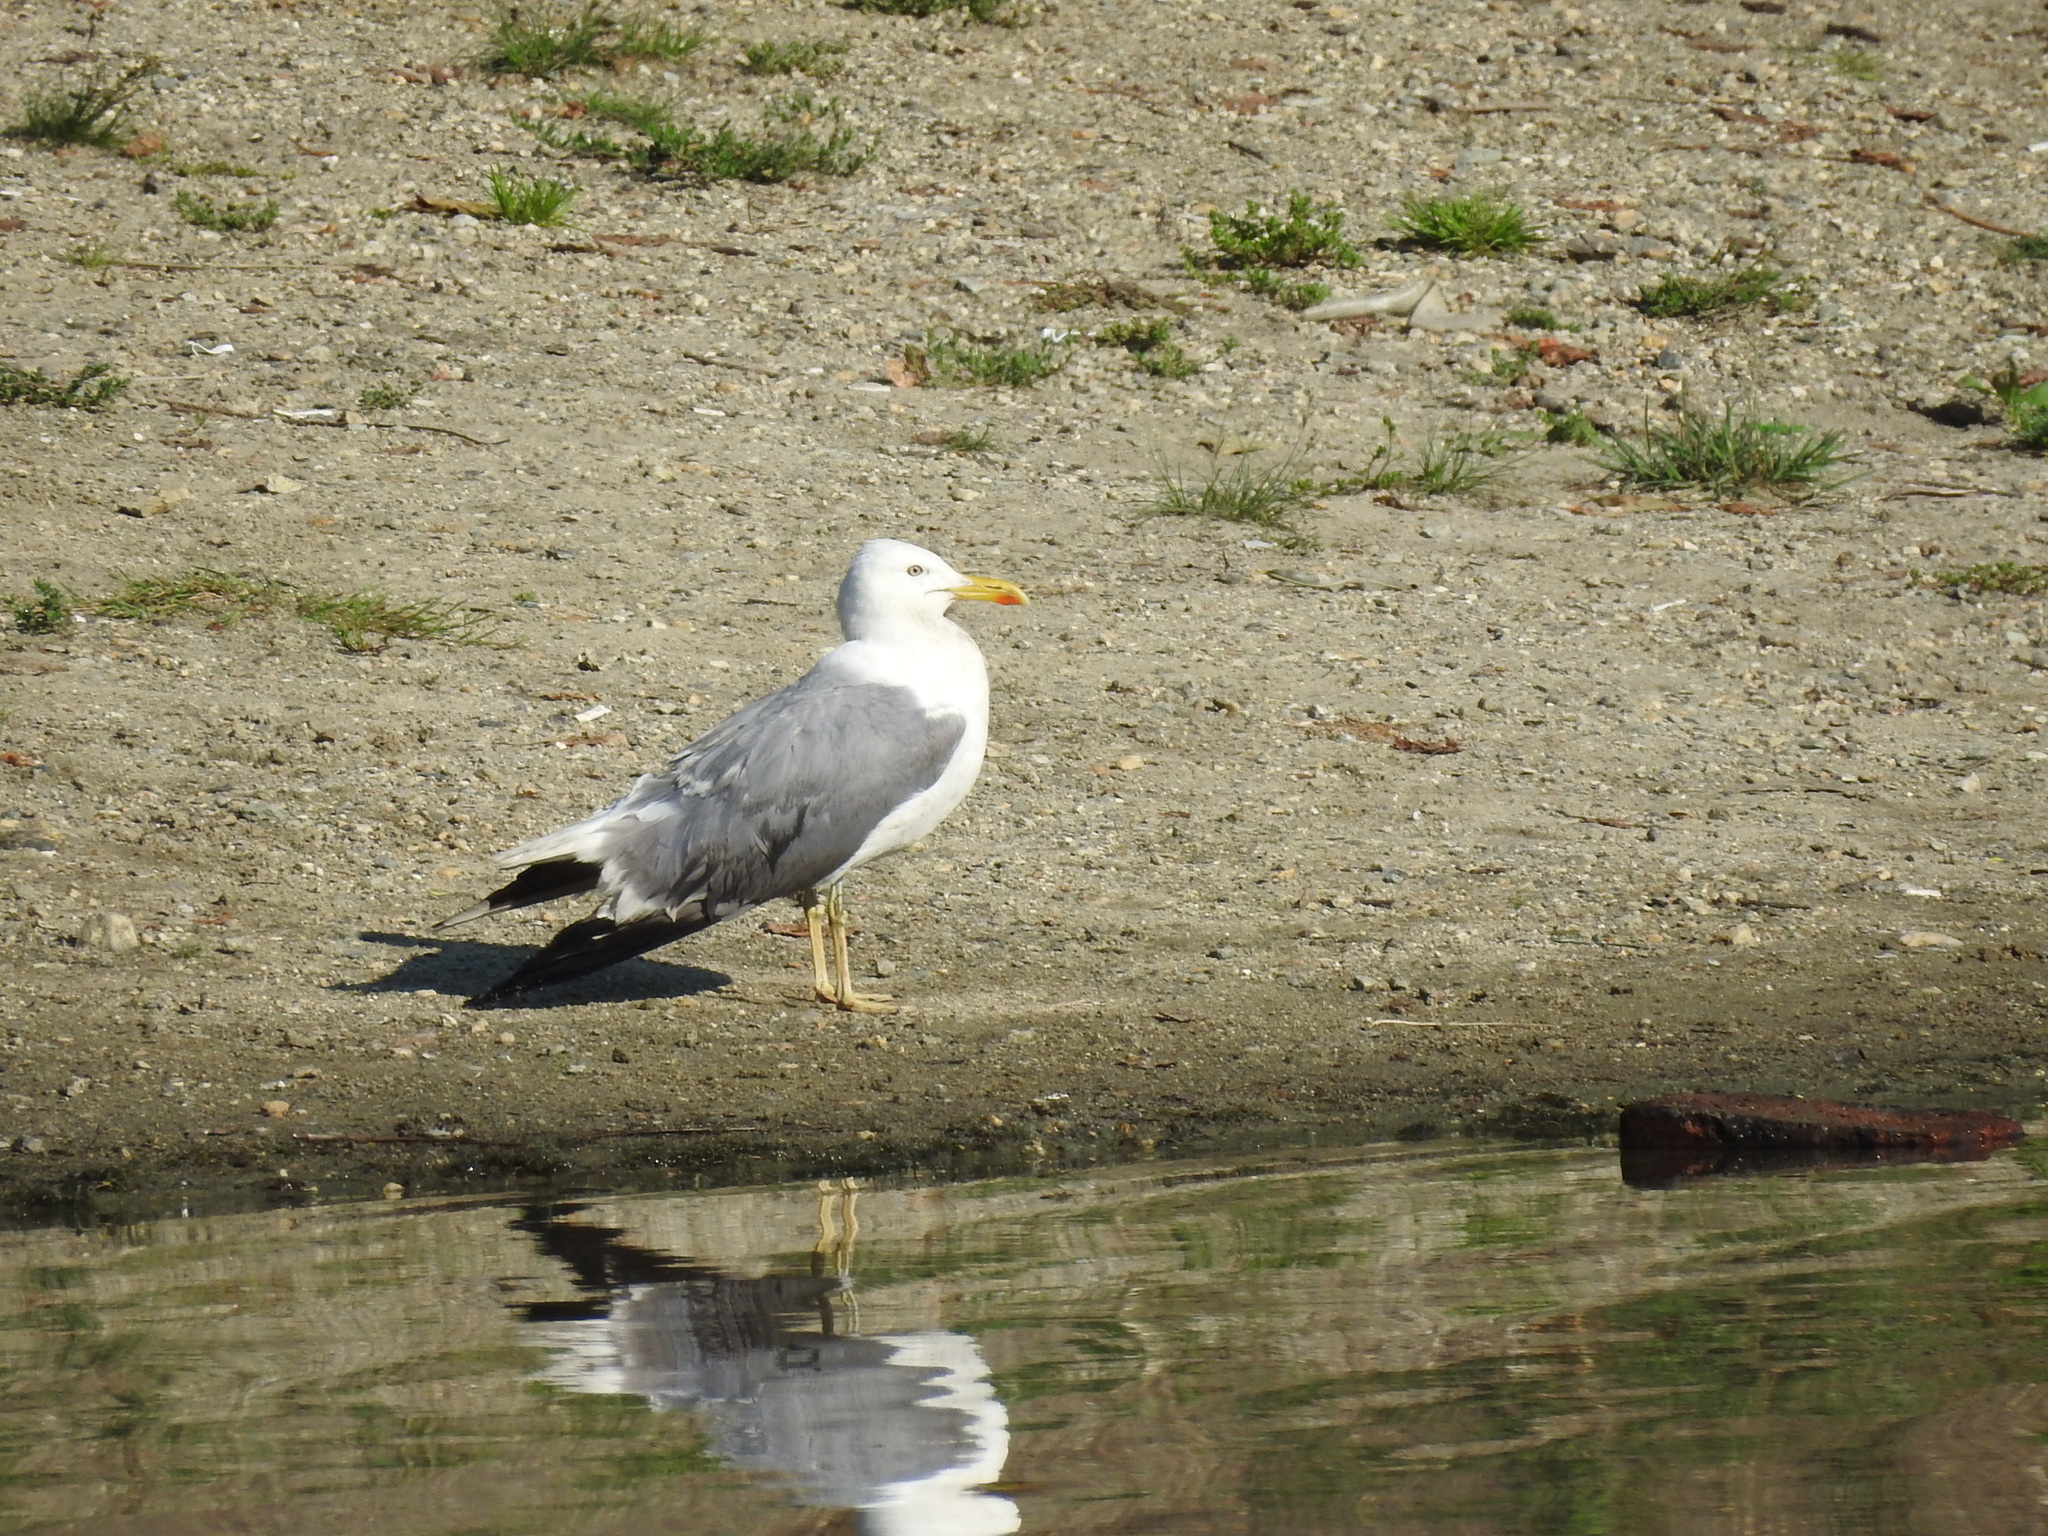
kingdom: Animalia
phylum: Chordata
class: Aves
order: Charadriiformes
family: Laridae
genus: Larus
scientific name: Larus fuscus
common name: Lesser black-backed gull
